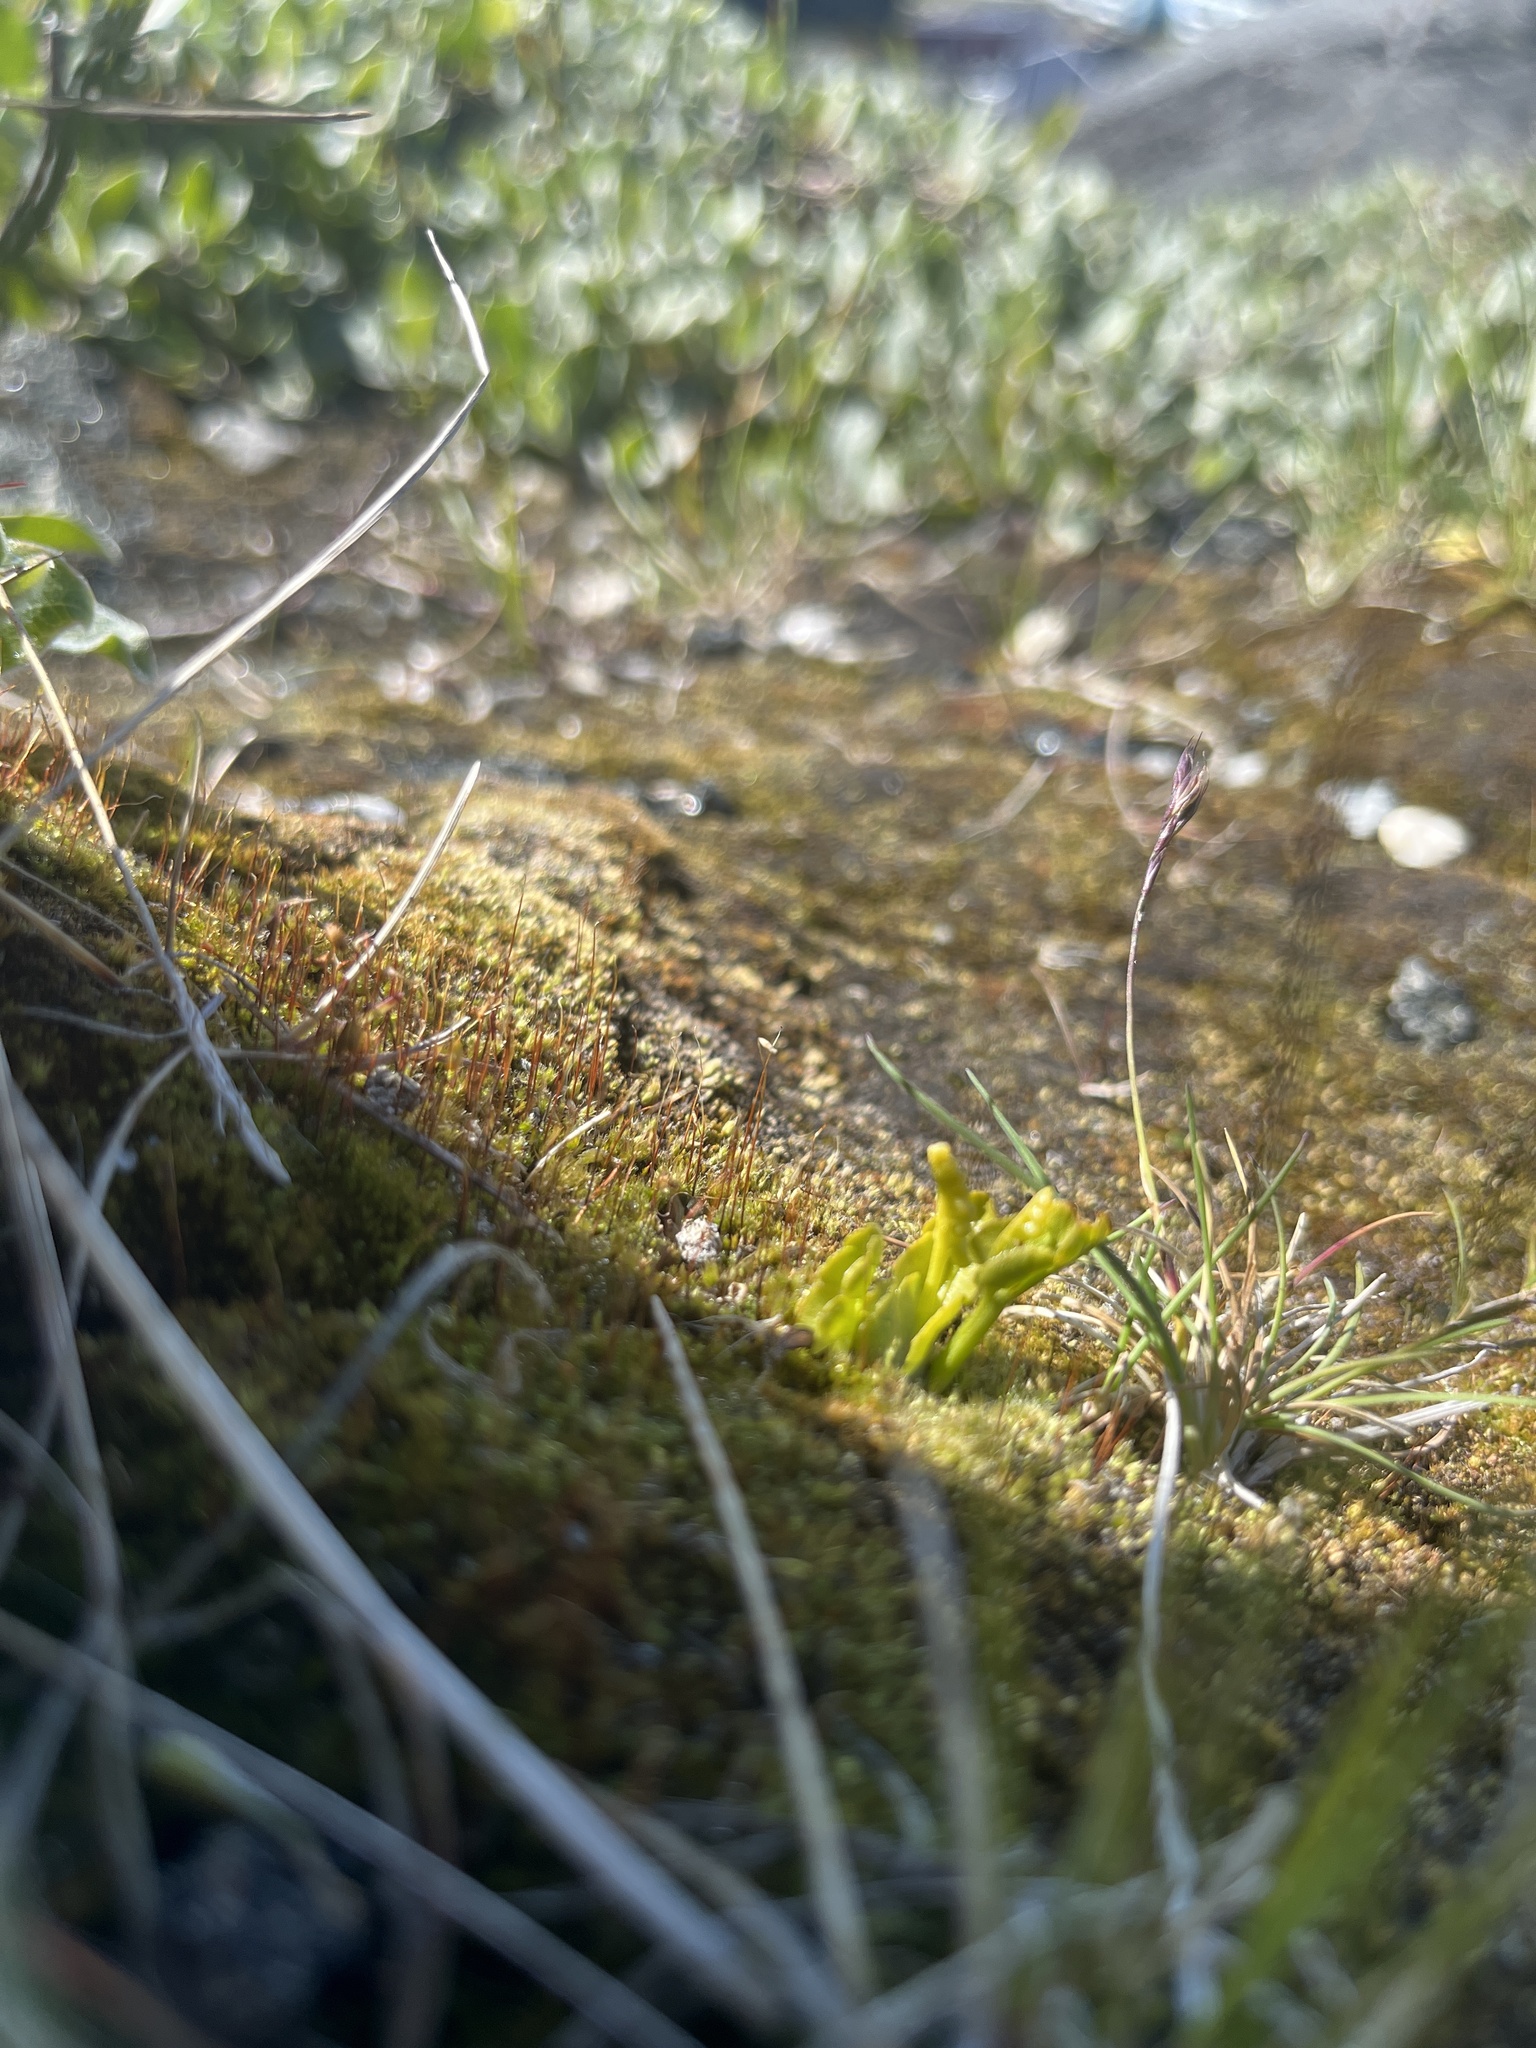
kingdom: Plantae
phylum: Tracheophyta
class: Polypodiopsida
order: Ophioglossales
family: Ophioglossaceae
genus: Botrychium
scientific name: Botrychium lunaria
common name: Moonwort
